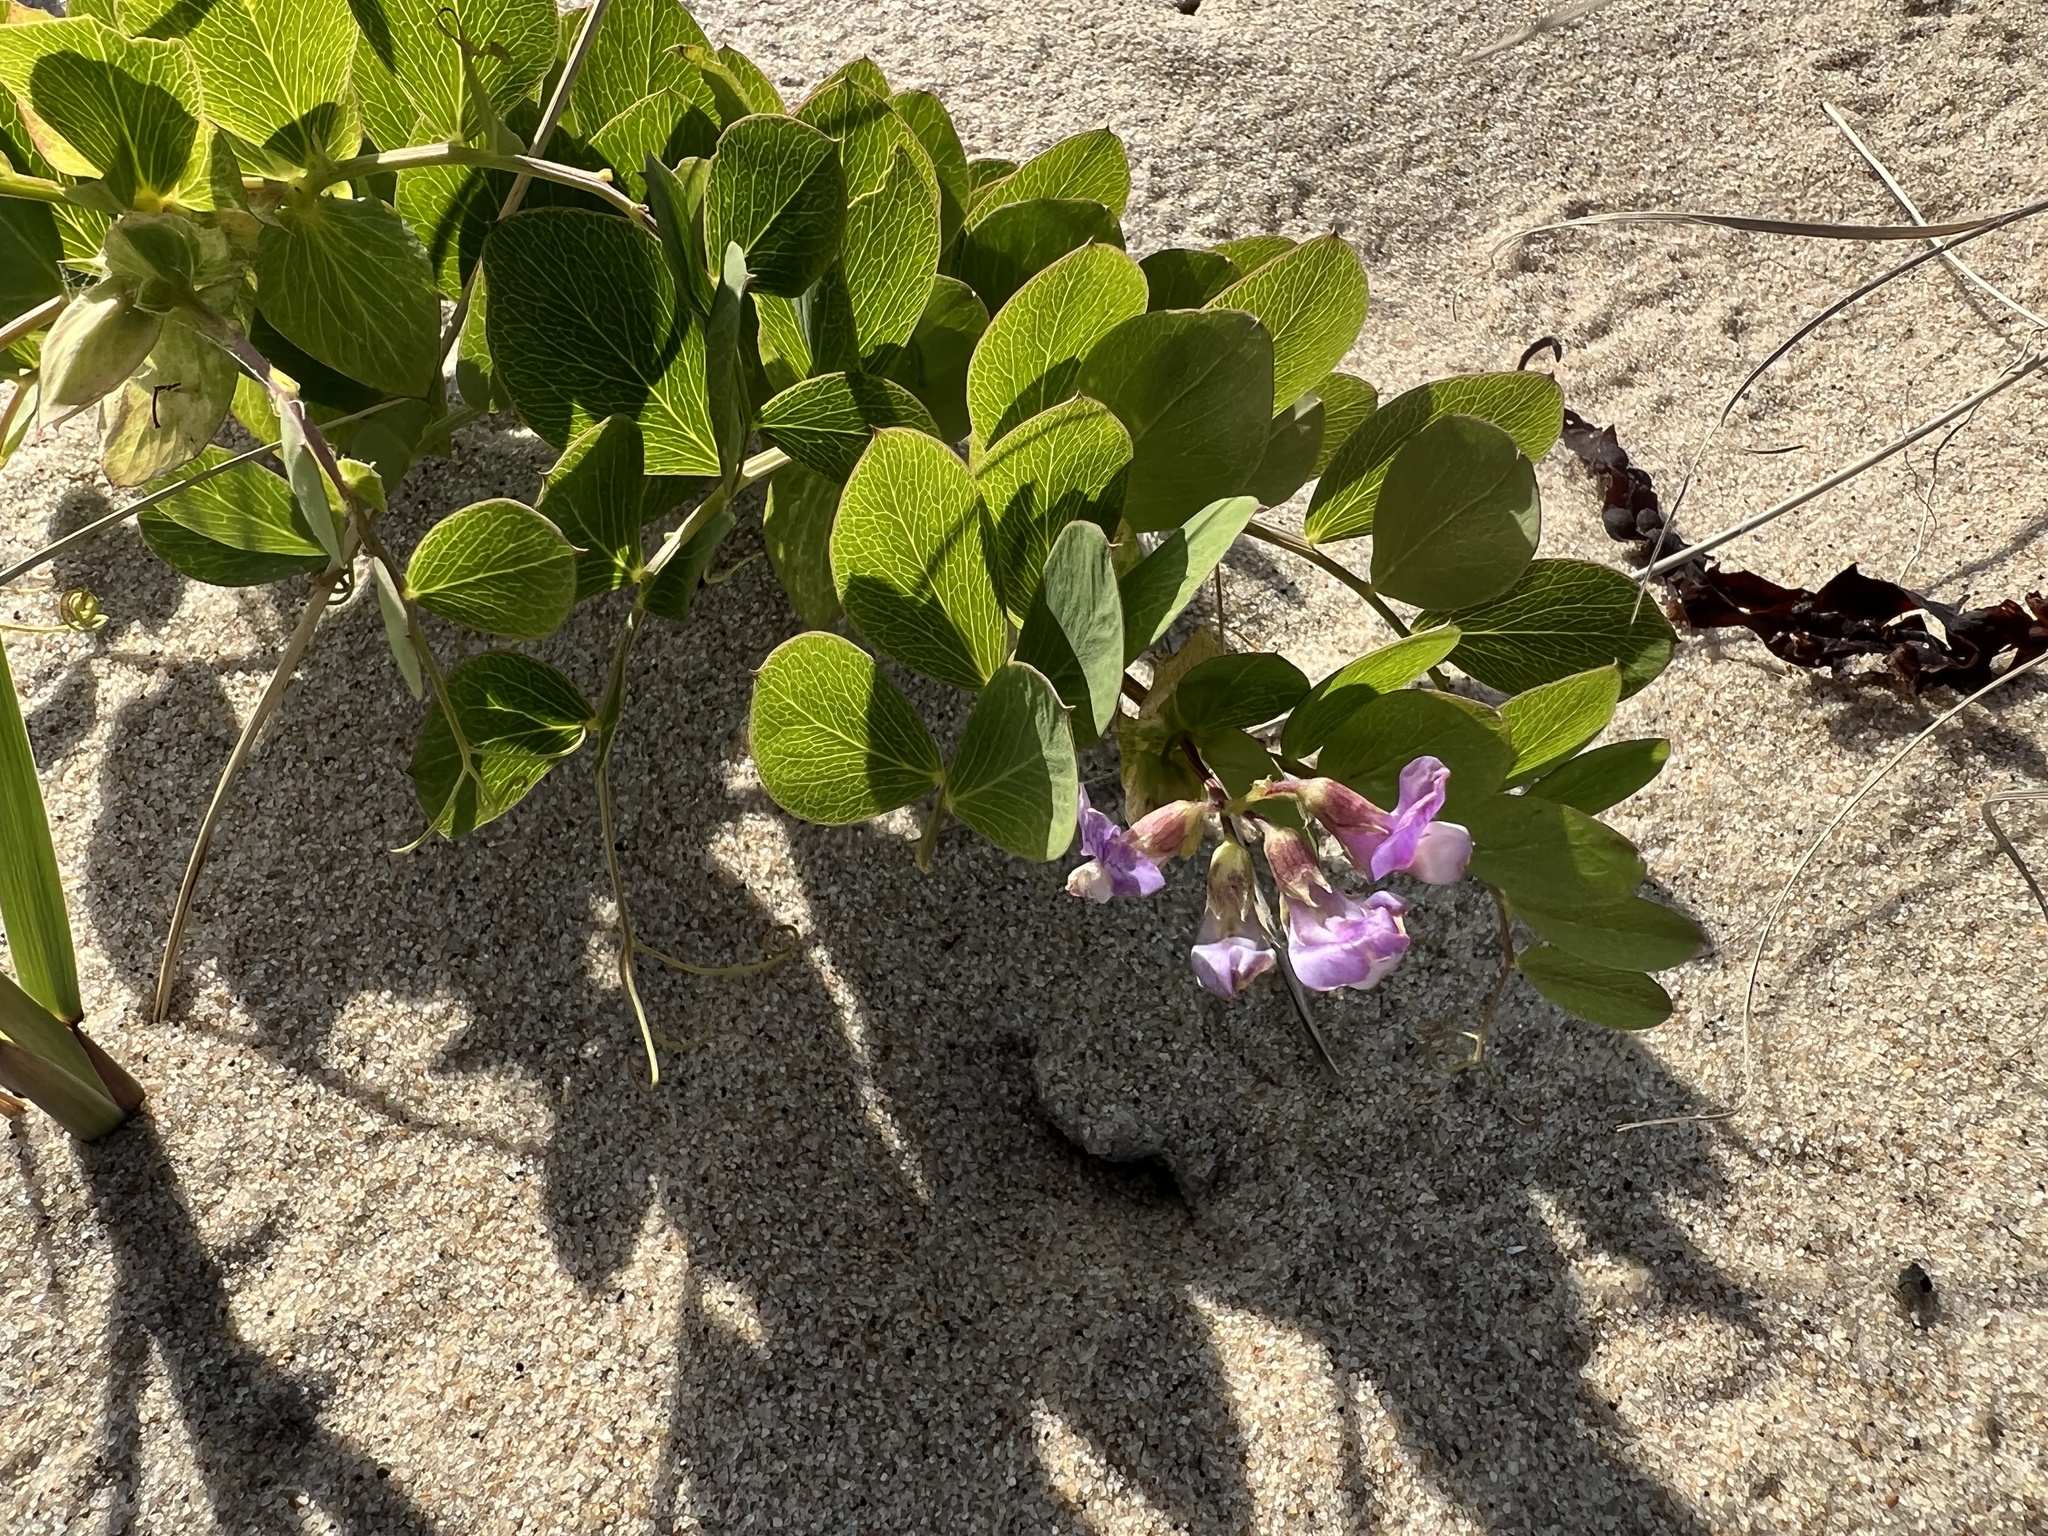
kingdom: Plantae
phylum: Tracheophyta
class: Magnoliopsida
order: Fabales
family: Fabaceae
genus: Lathyrus
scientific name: Lathyrus japonicus
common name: Sea pea
